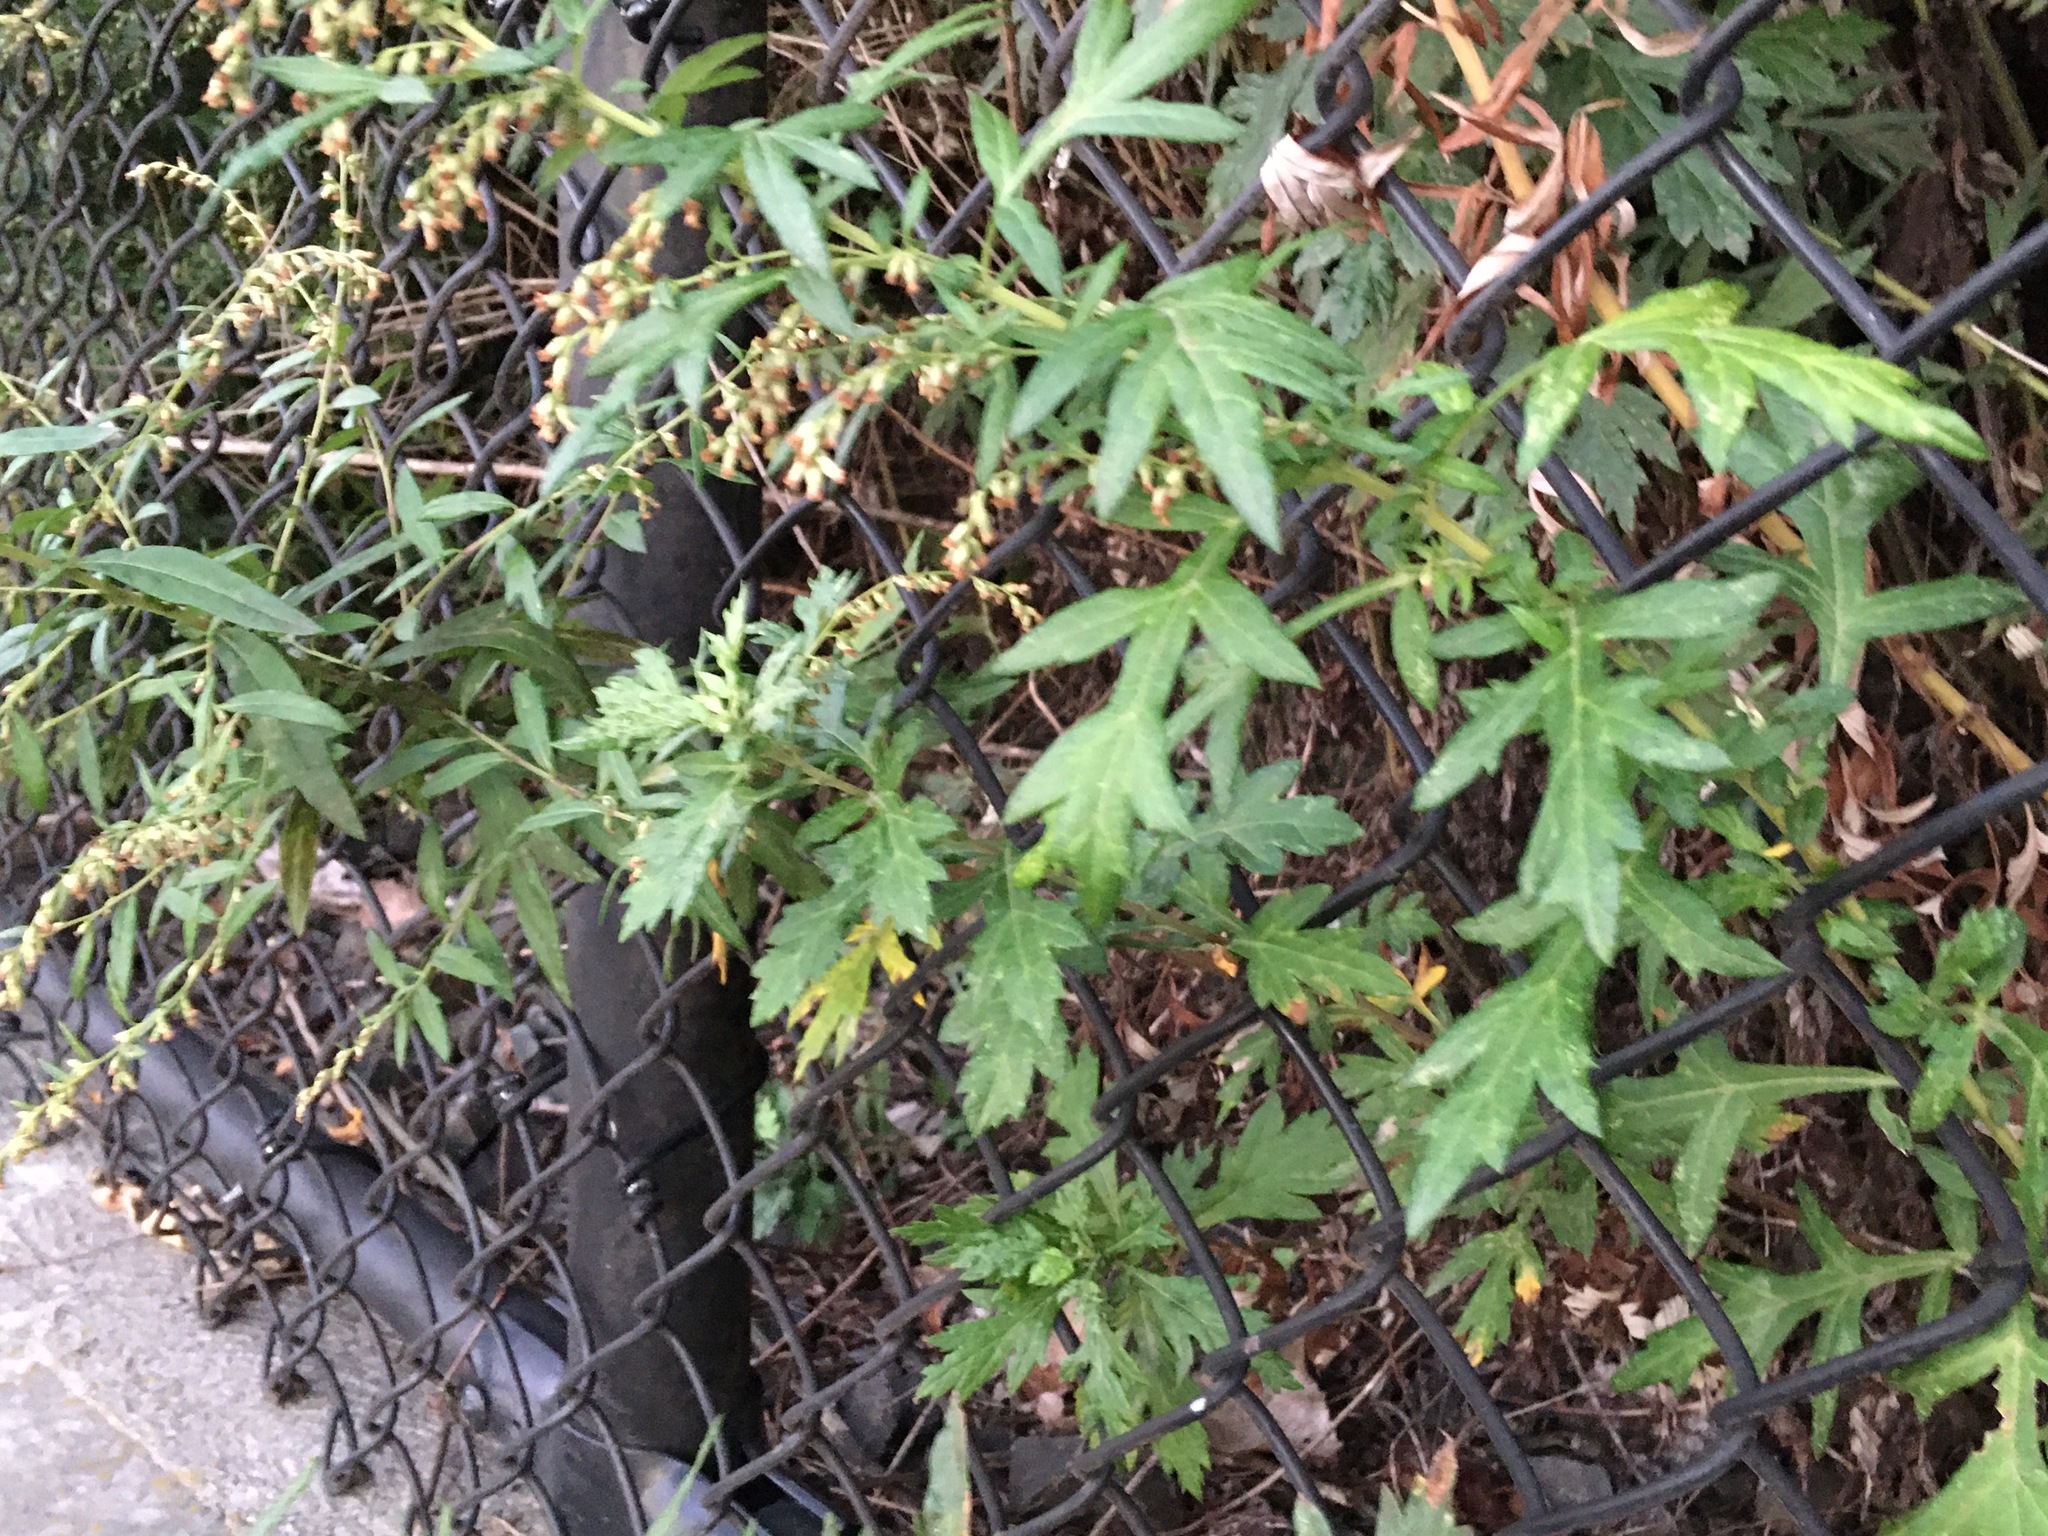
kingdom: Plantae
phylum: Tracheophyta
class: Magnoliopsida
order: Asterales
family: Asteraceae
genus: Artemisia
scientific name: Artemisia vulgaris
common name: Mugwort
